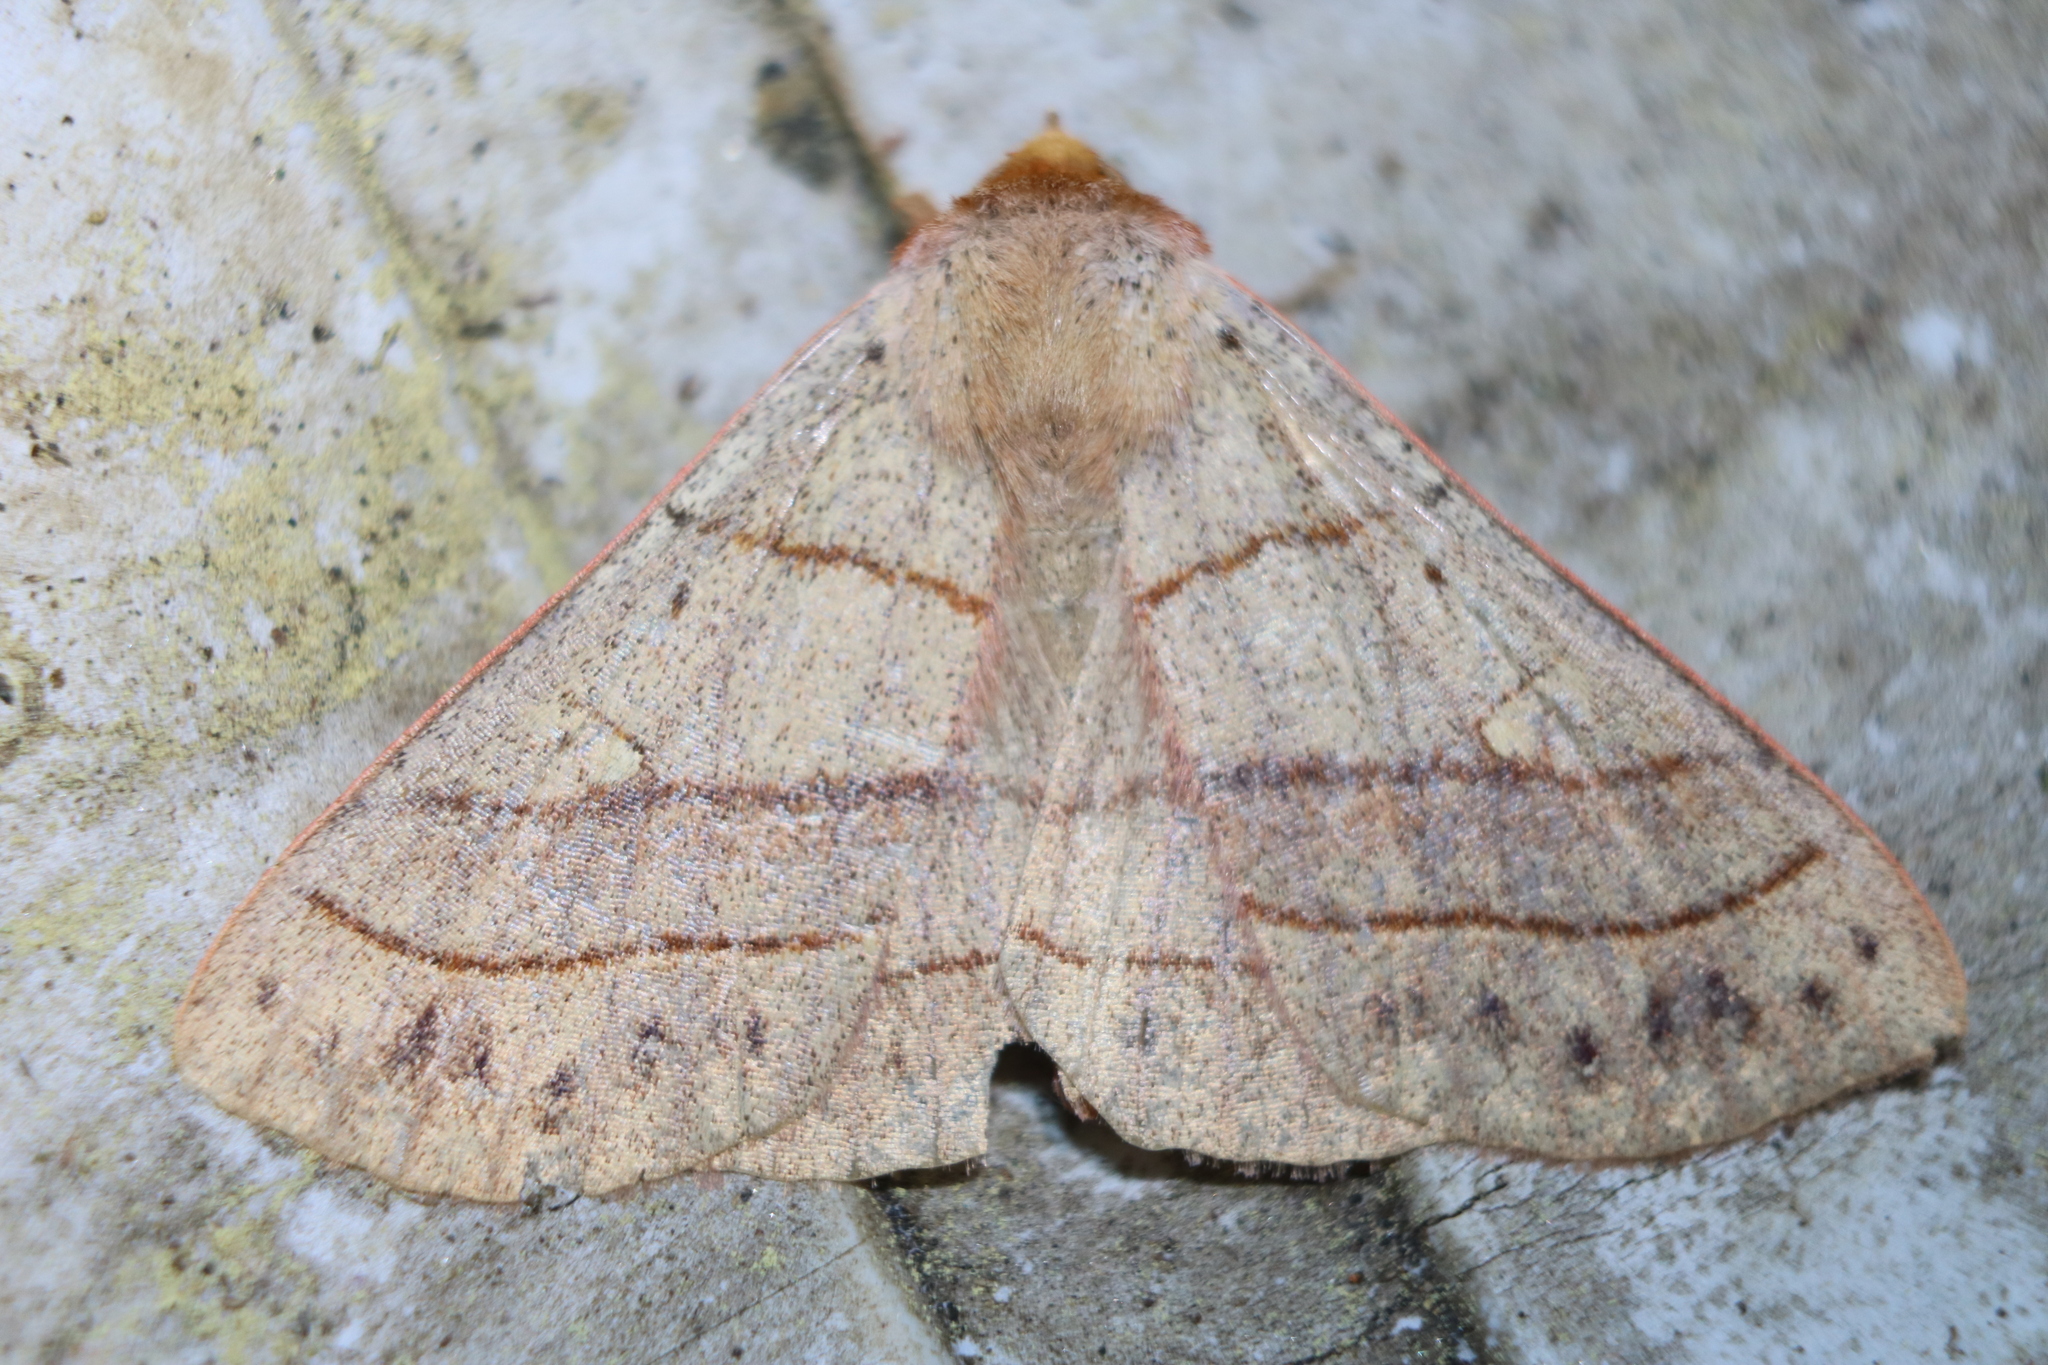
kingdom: Animalia
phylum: Arthropoda
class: Insecta
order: Lepidoptera
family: Erebidae
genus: Panopoda
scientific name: Panopoda rufimargo
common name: Red-lined panopoda moth
